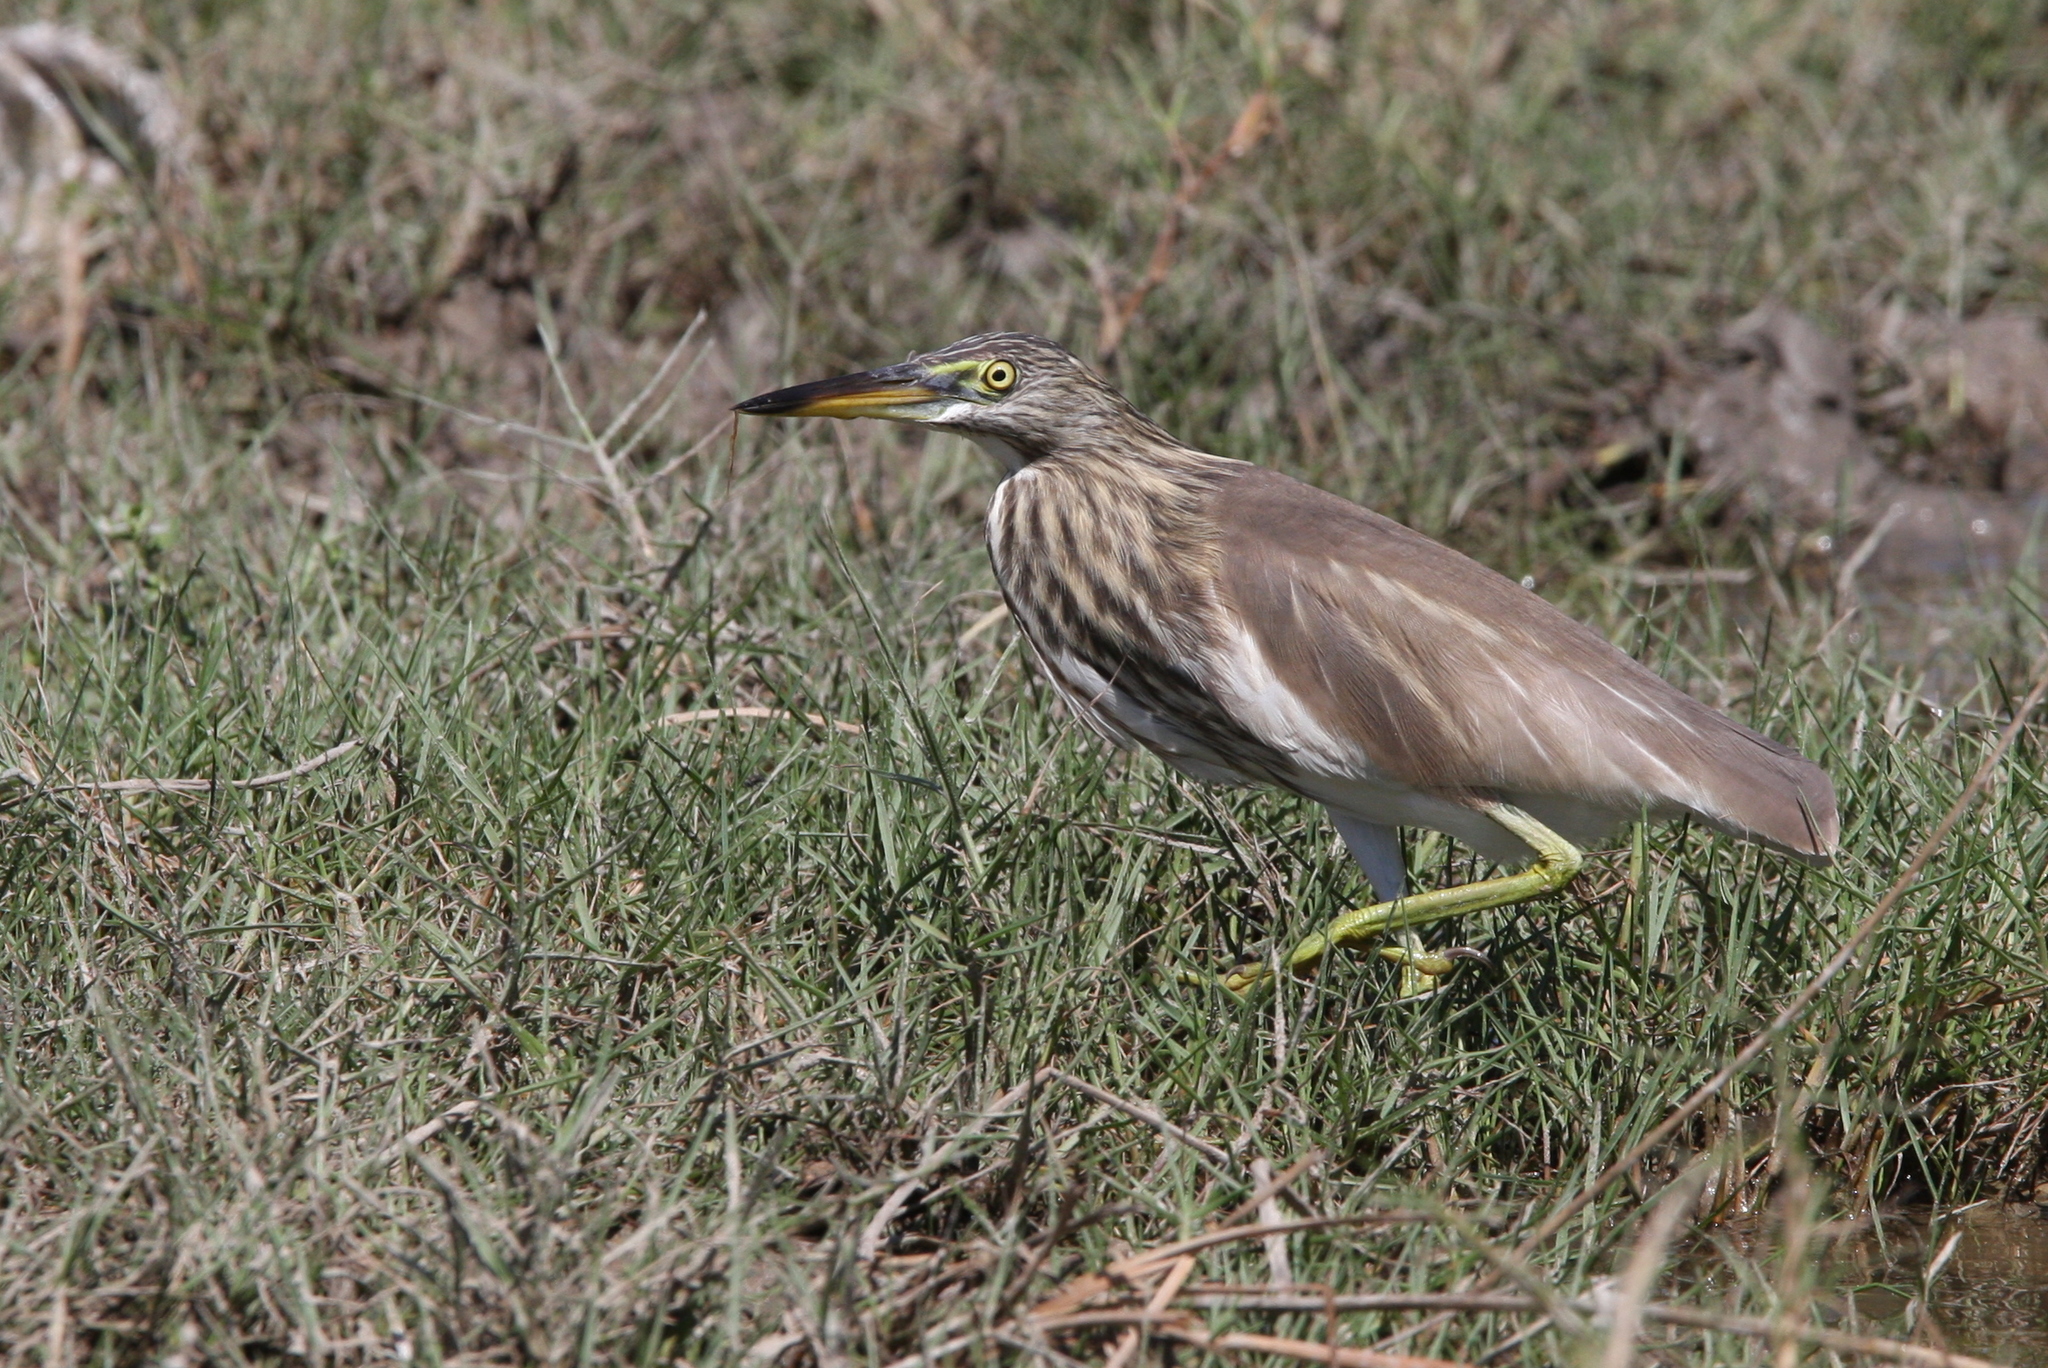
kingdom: Animalia
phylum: Chordata
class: Aves
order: Pelecaniformes
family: Ardeidae
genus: Ardeola
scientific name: Ardeola grayii
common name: Indian pond heron
